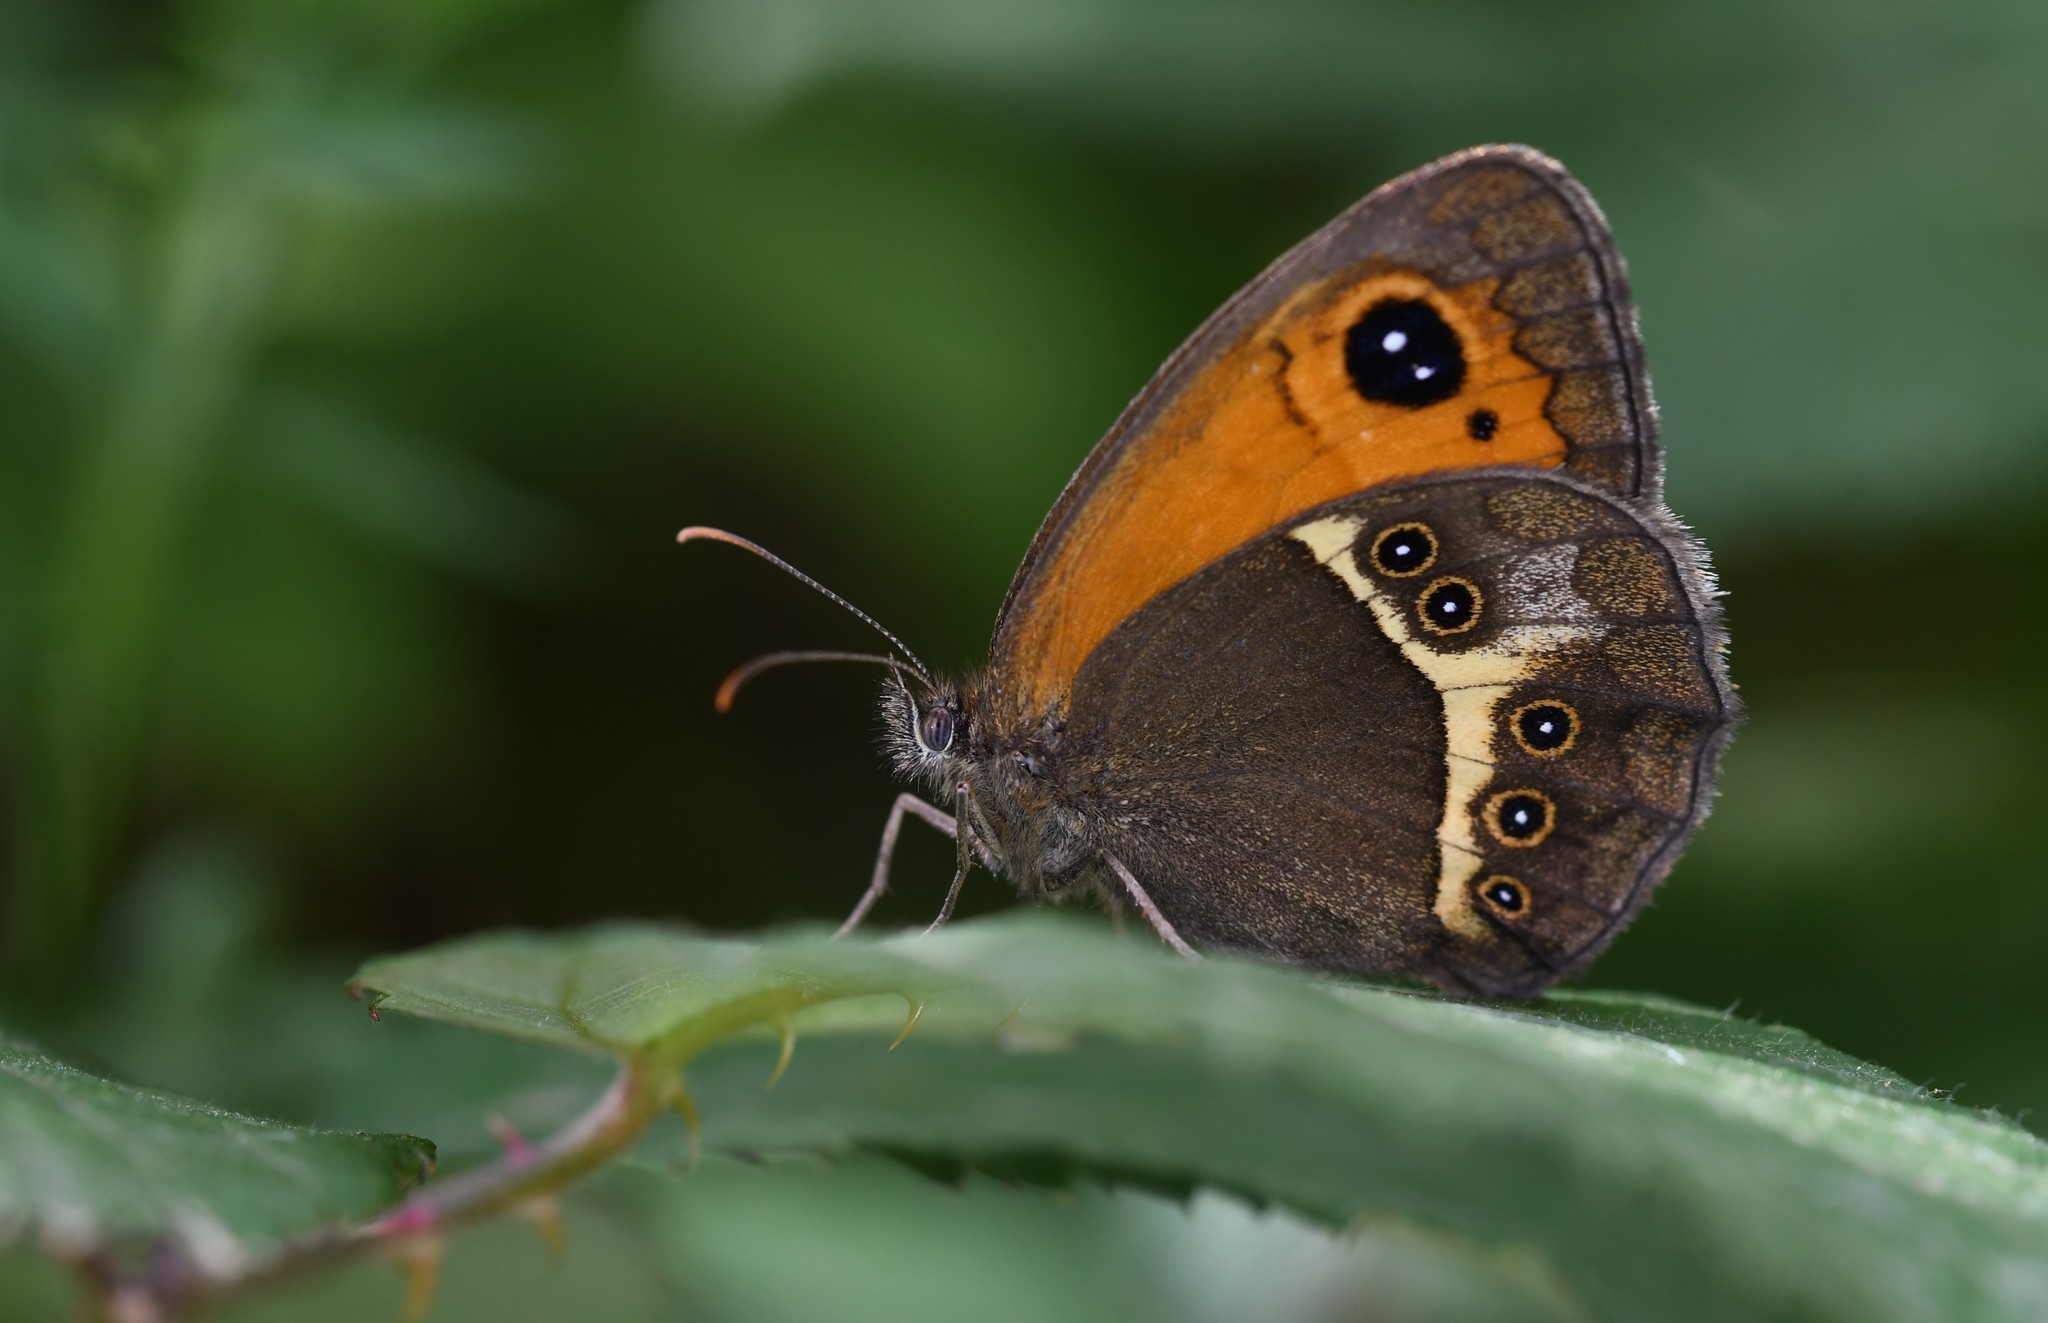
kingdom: Animalia
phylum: Arthropoda
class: Insecta
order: Lepidoptera
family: Nymphalidae
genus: Pyronia
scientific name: Pyronia bathseba
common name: Spanish gatekeeper
